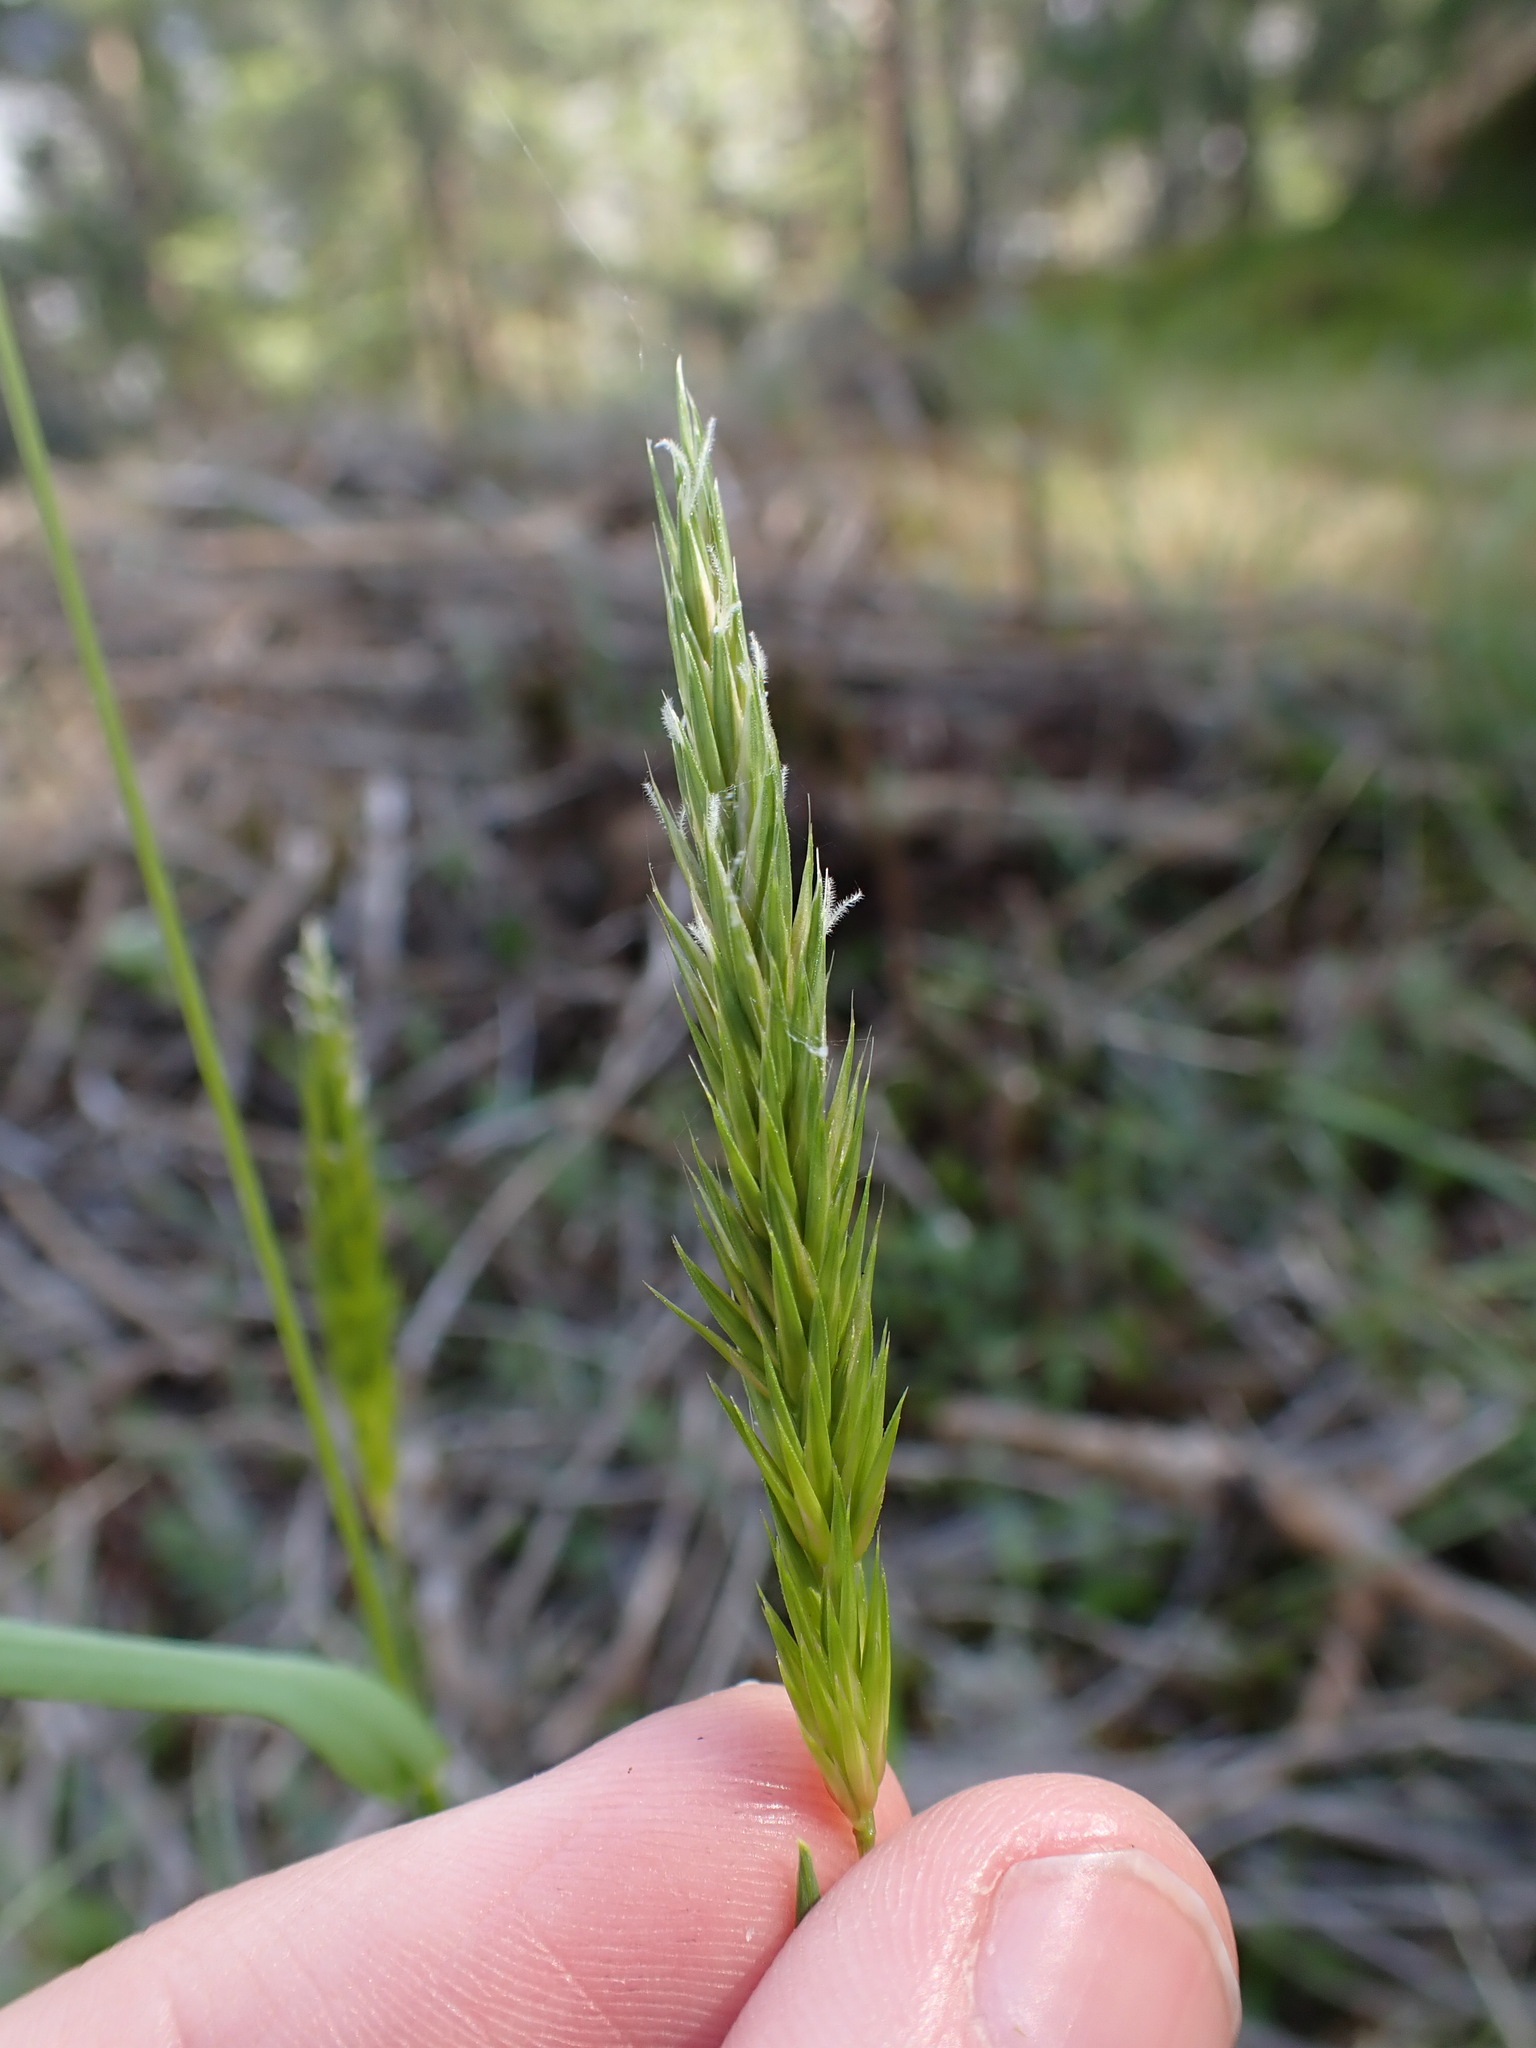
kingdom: Plantae
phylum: Tracheophyta
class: Liliopsida
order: Poales
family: Poaceae
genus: Anthoxanthum
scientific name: Anthoxanthum odoratum
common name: Sweet vernalgrass
